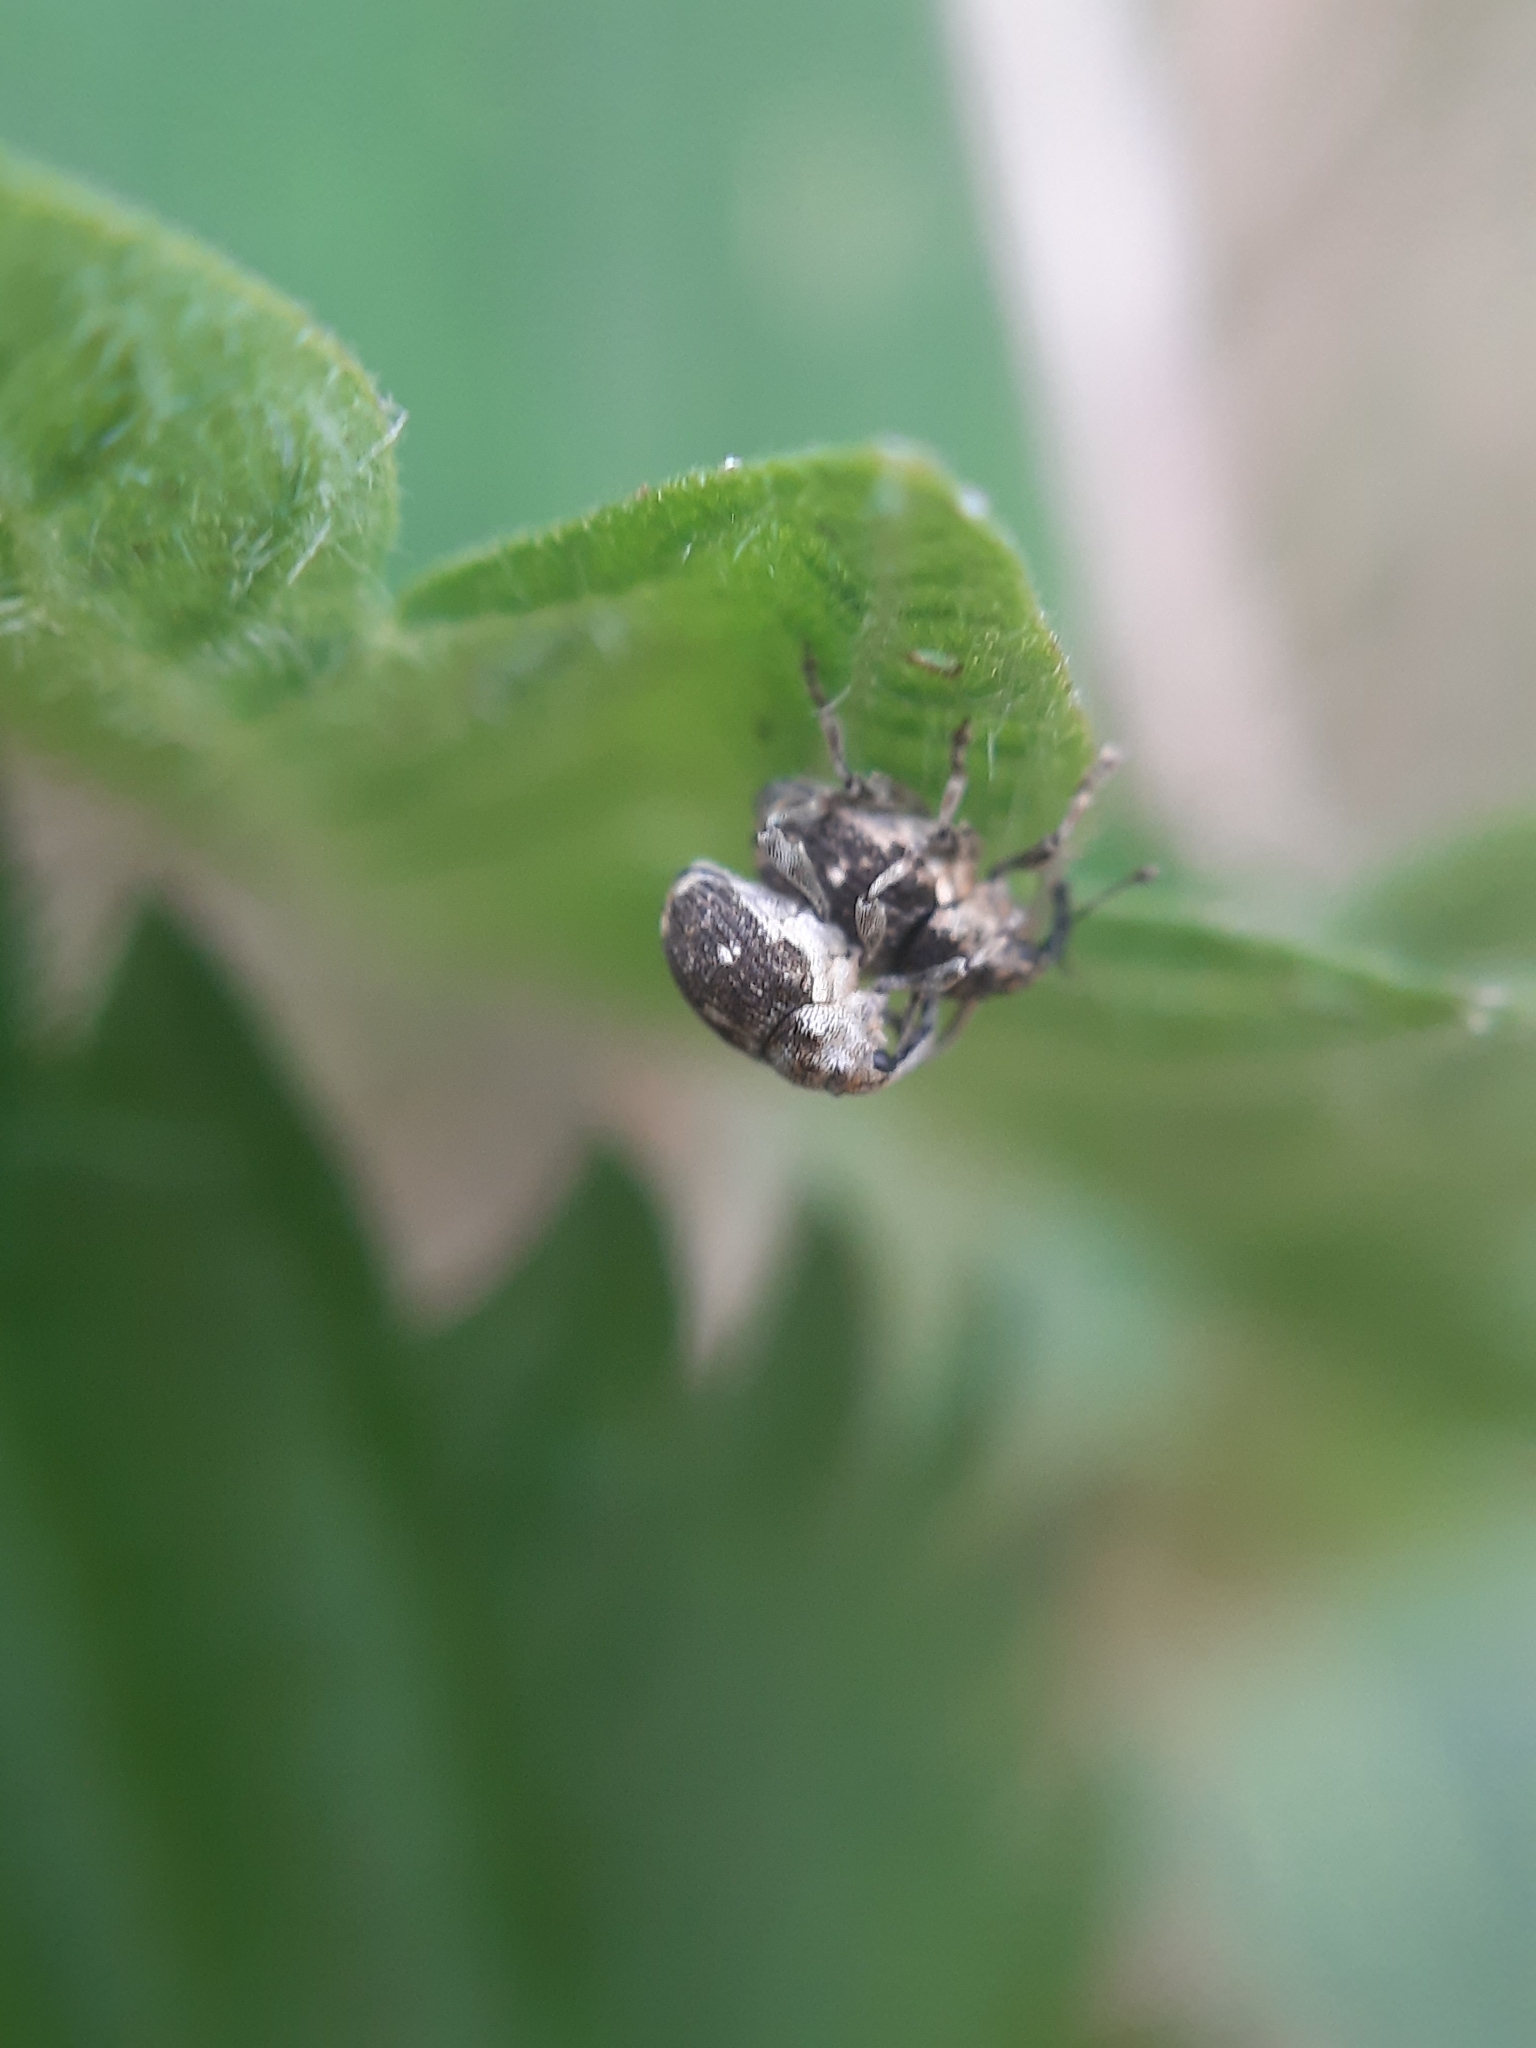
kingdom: Animalia
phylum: Arthropoda
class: Insecta
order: Coleoptera
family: Curculionidae
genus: Nedyus
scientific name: Nedyus quadrimaculatus
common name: Small nettle weevil
